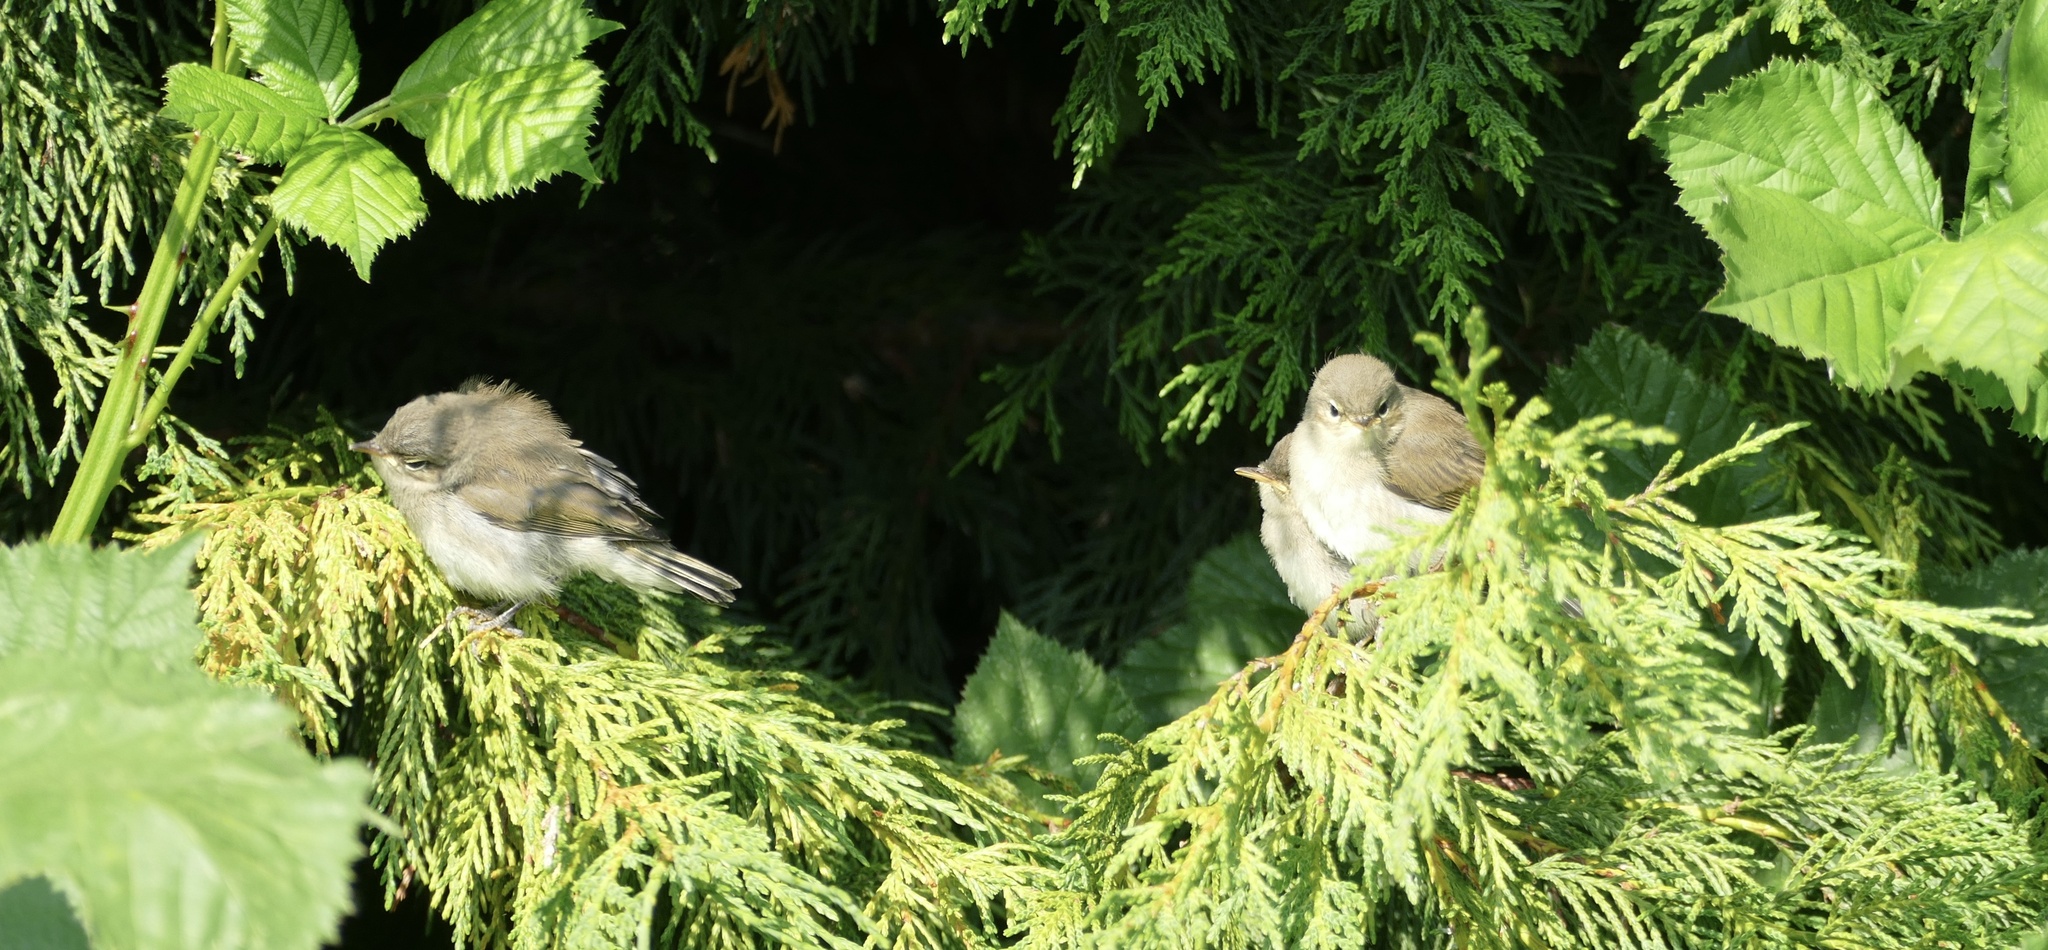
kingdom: Animalia
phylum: Chordata
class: Aves
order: Passeriformes
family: Phylloscopidae
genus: Phylloscopus
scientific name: Phylloscopus collybita
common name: Common chiffchaff
